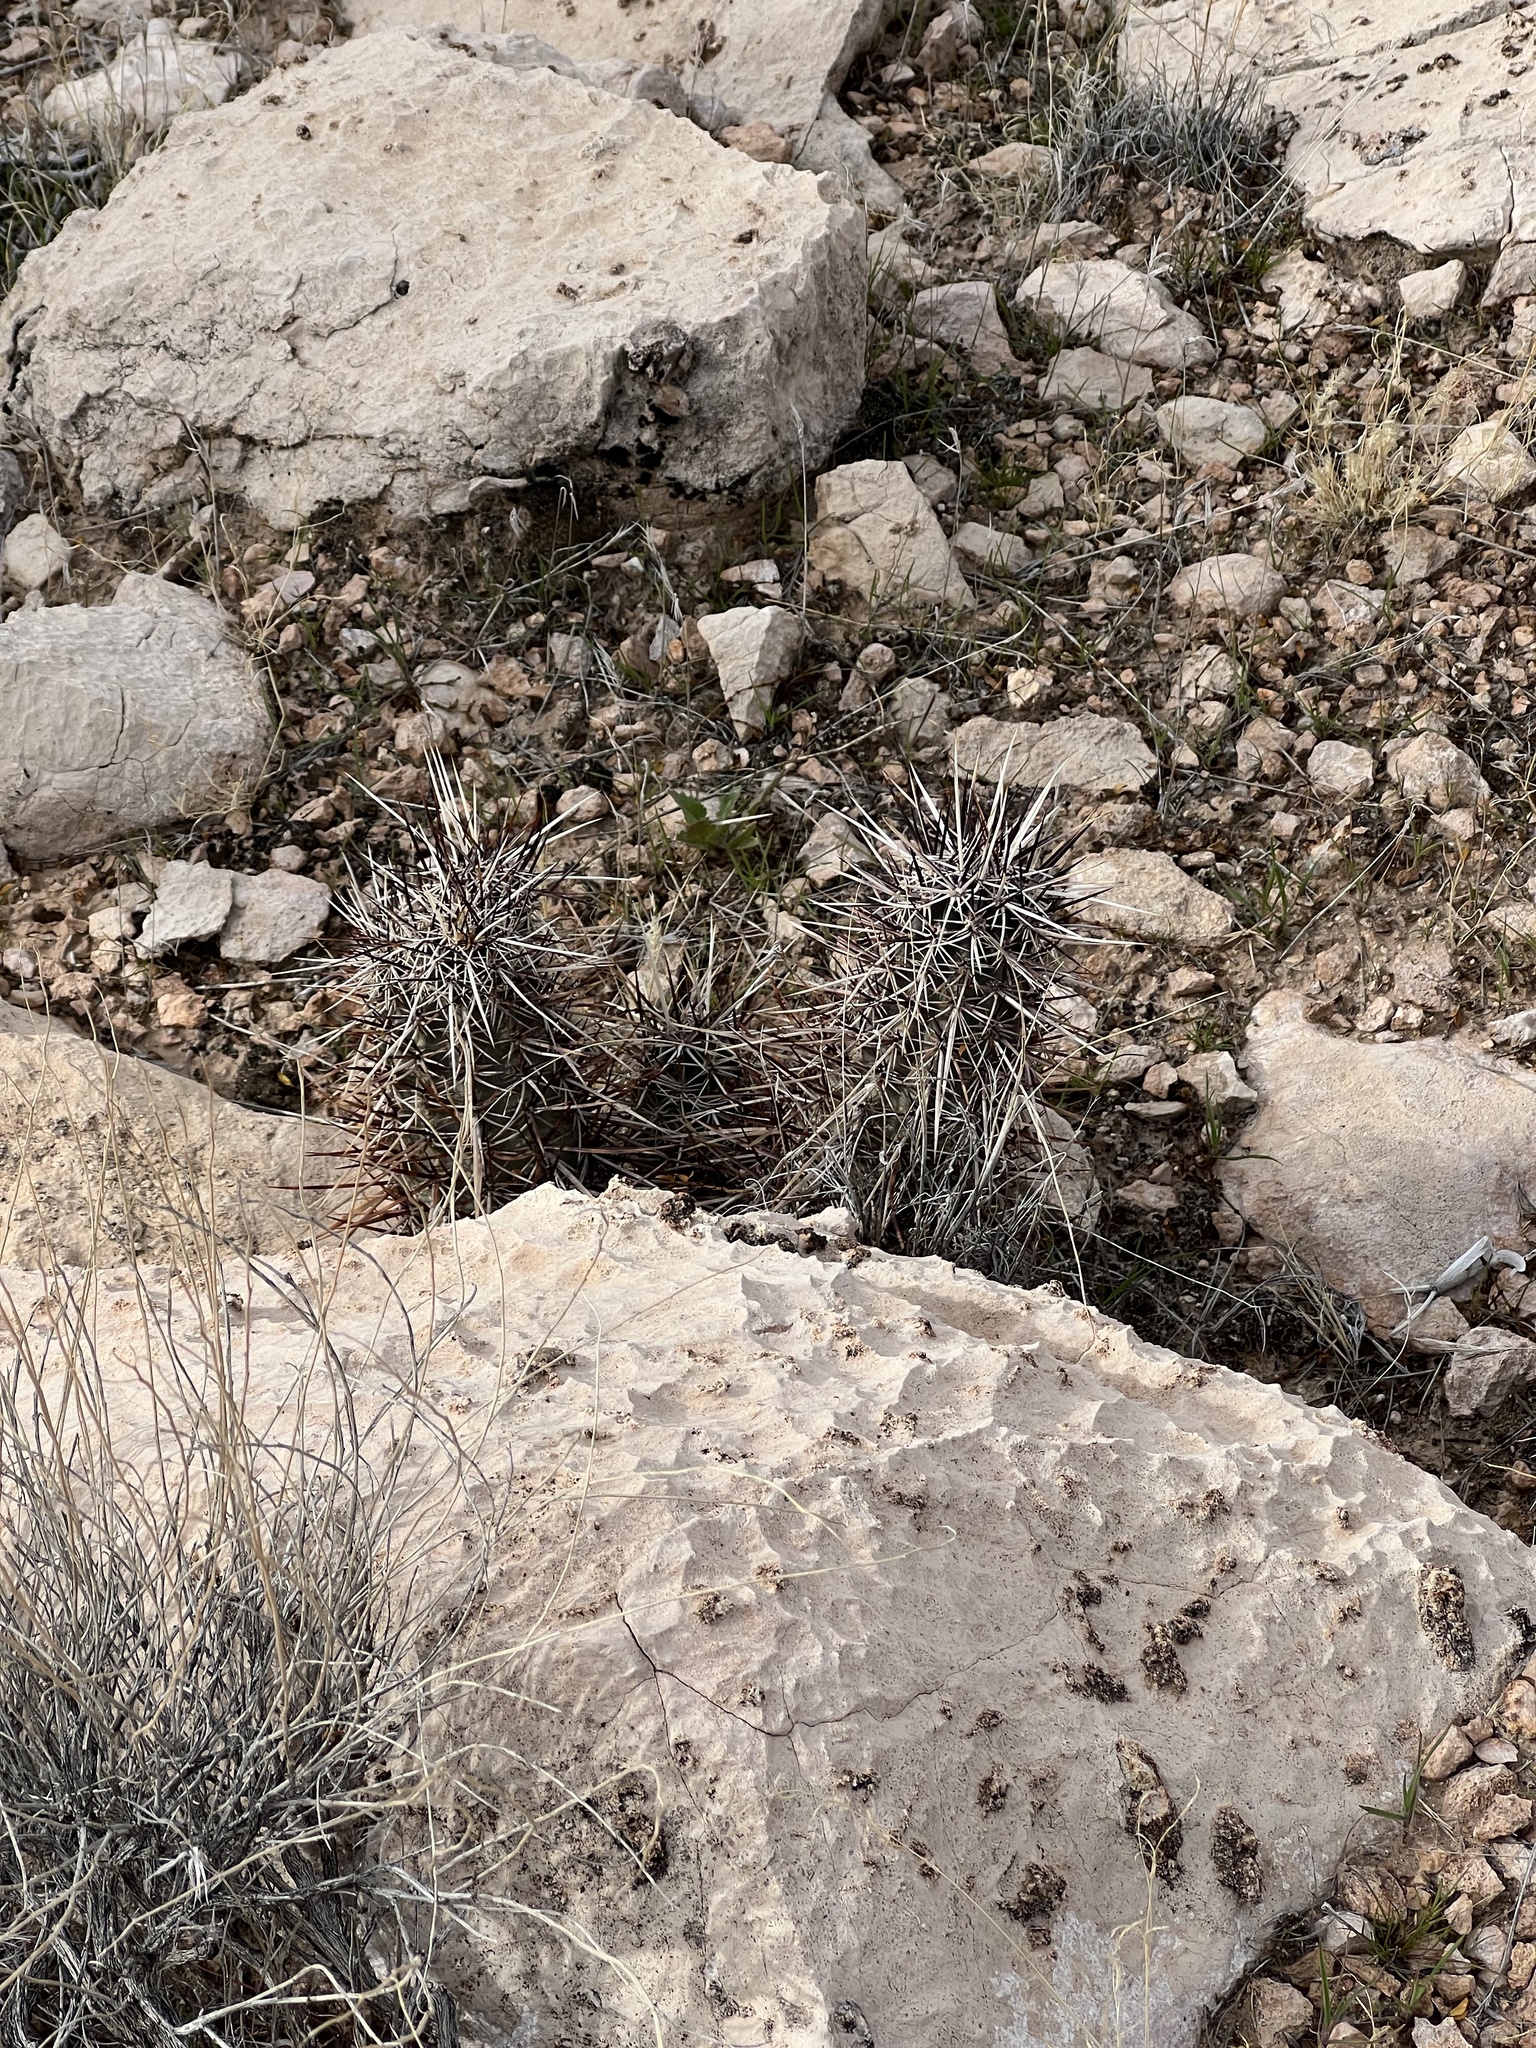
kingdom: Plantae
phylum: Tracheophyta
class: Magnoliopsida
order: Caryophyllales
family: Cactaceae
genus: Echinocereus
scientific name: Echinocereus engelmannii
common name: Engelmann's hedgehog cactus
